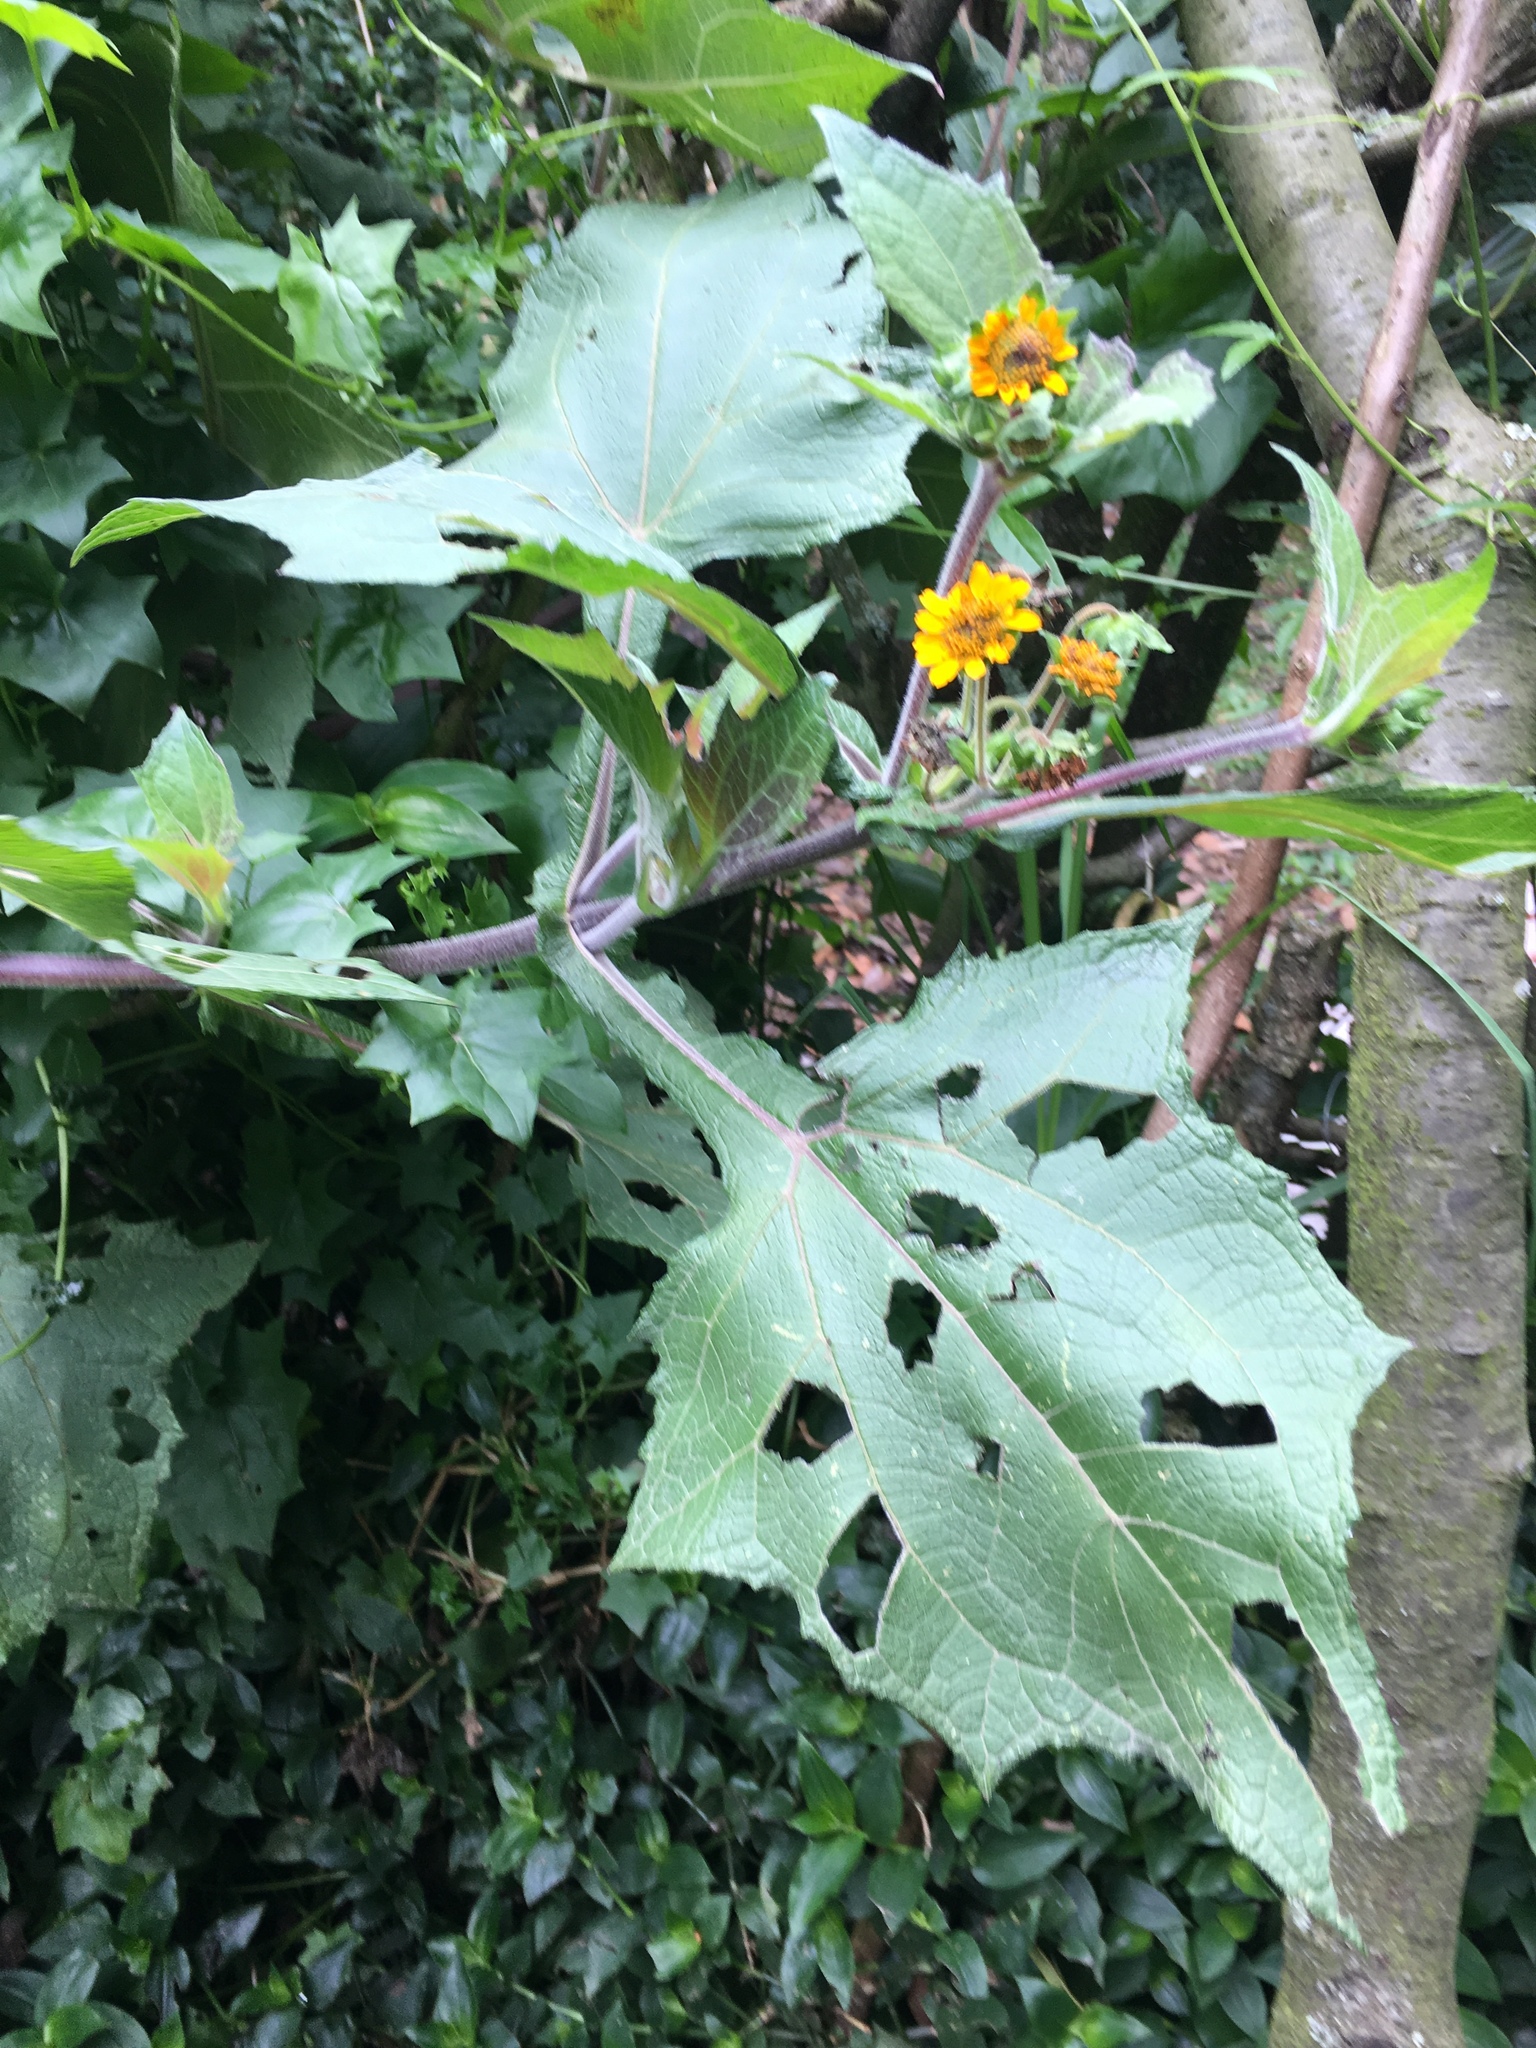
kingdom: Plantae
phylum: Tracheophyta
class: Magnoliopsida
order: Asterales
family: Asteraceae
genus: Smallanthus
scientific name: Smallanthus sonchifolius
